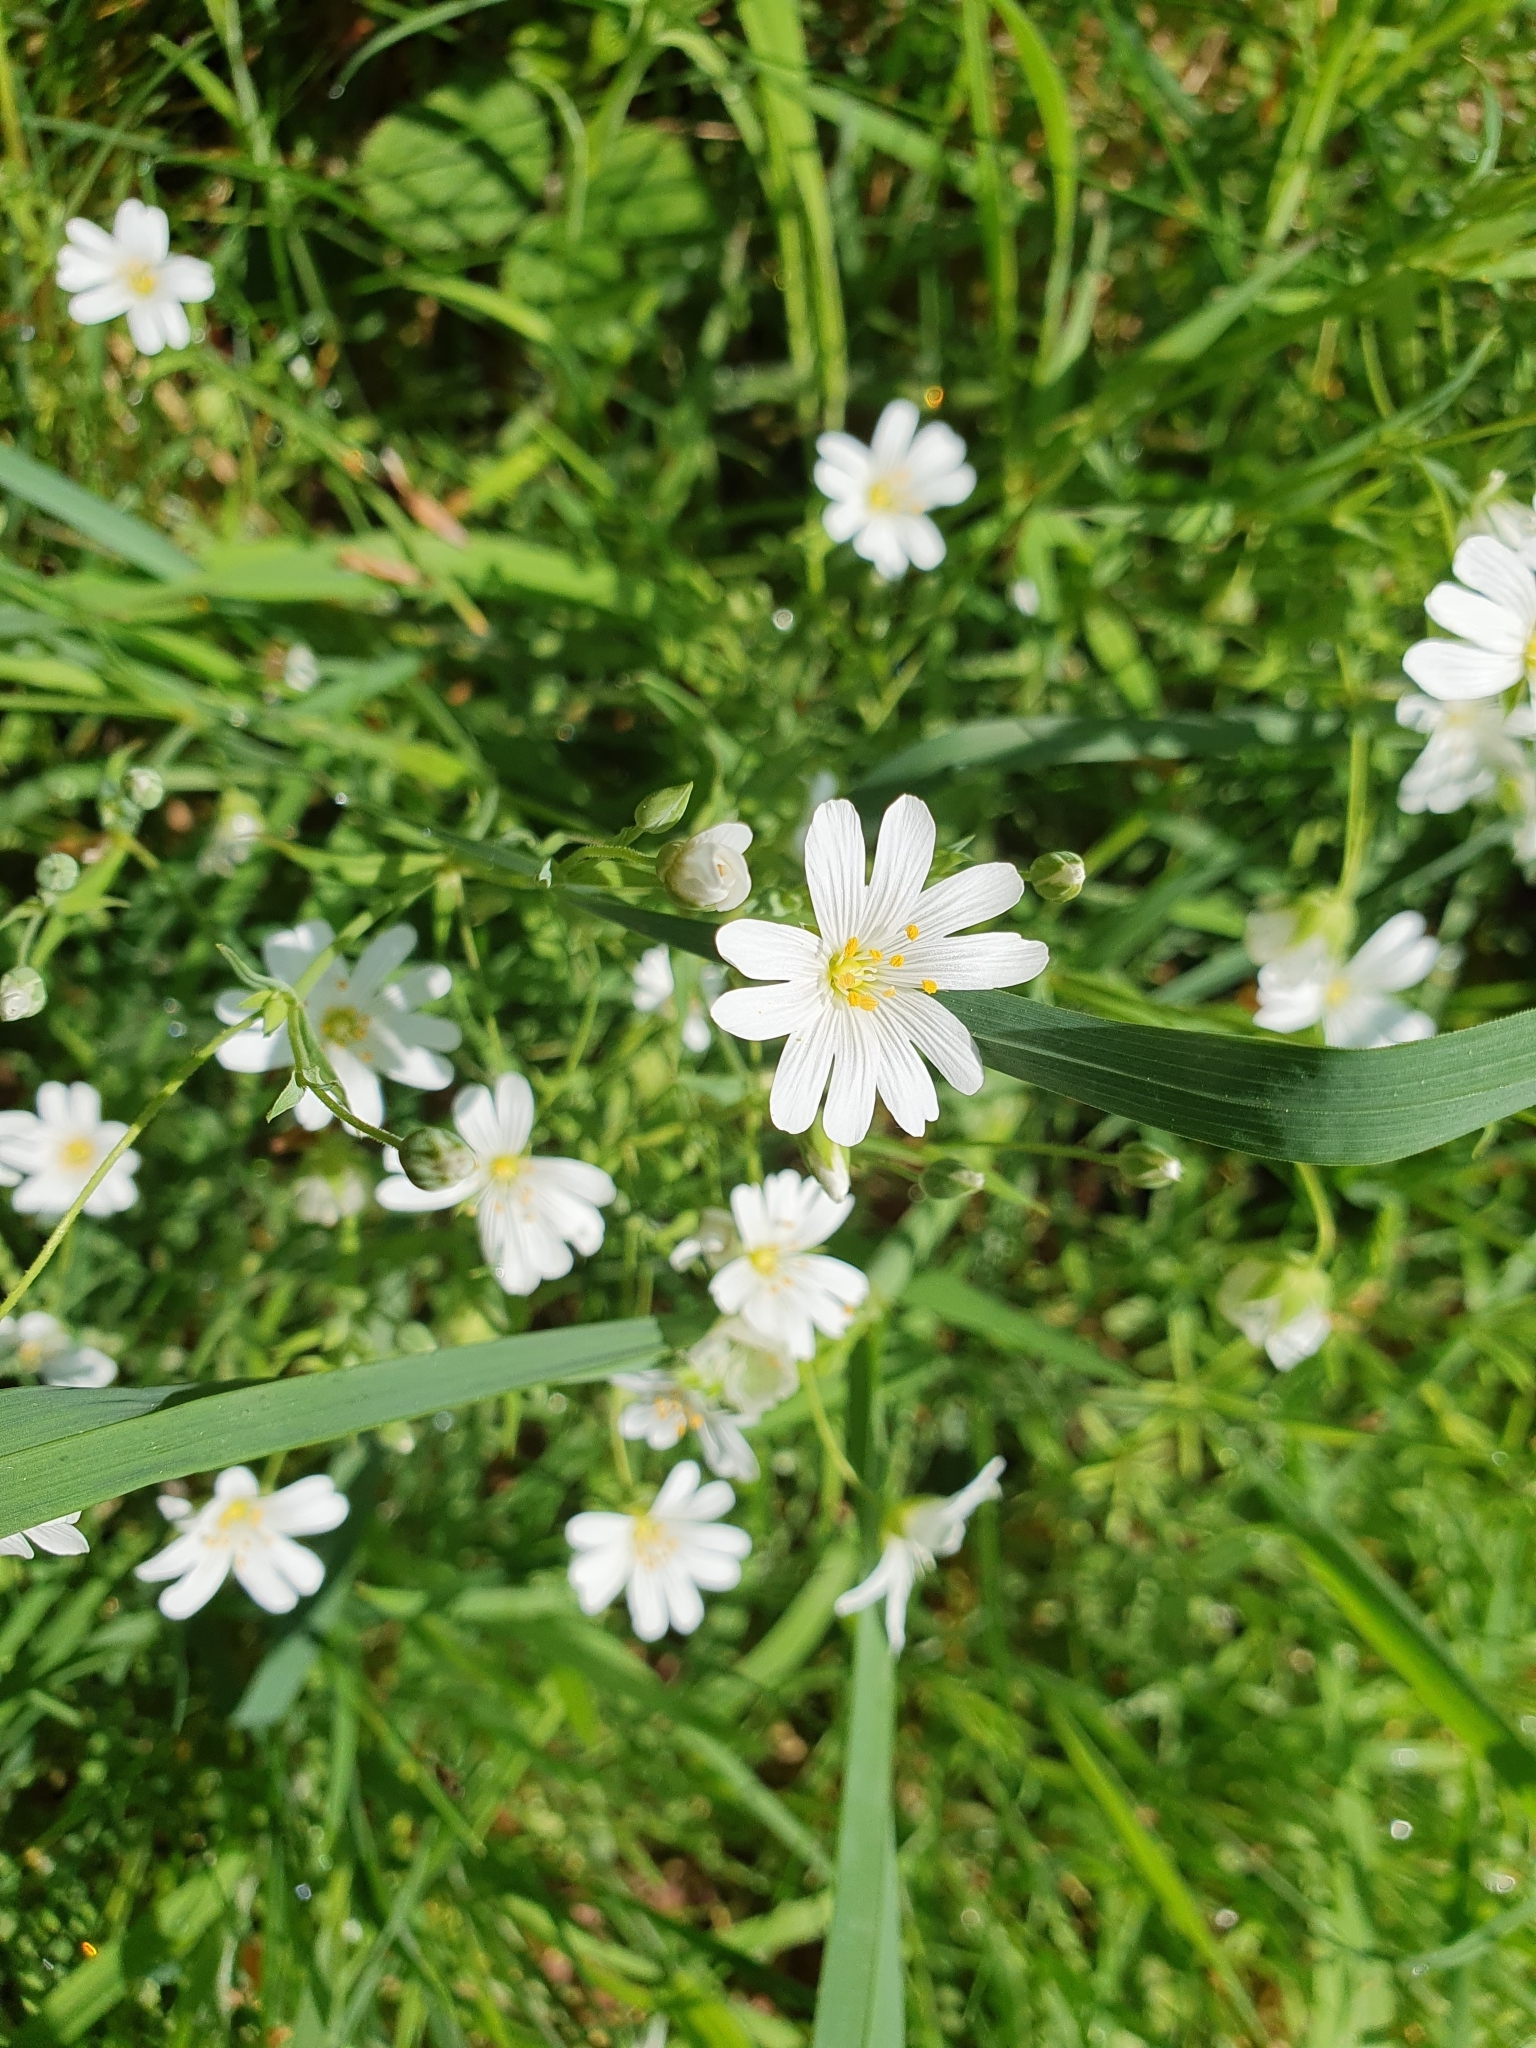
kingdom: Plantae
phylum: Tracheophyta
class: Magnoliopsida
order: Caryophyllales
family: Caryophyllaceae
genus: Rabelera
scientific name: Rabelera holostea
